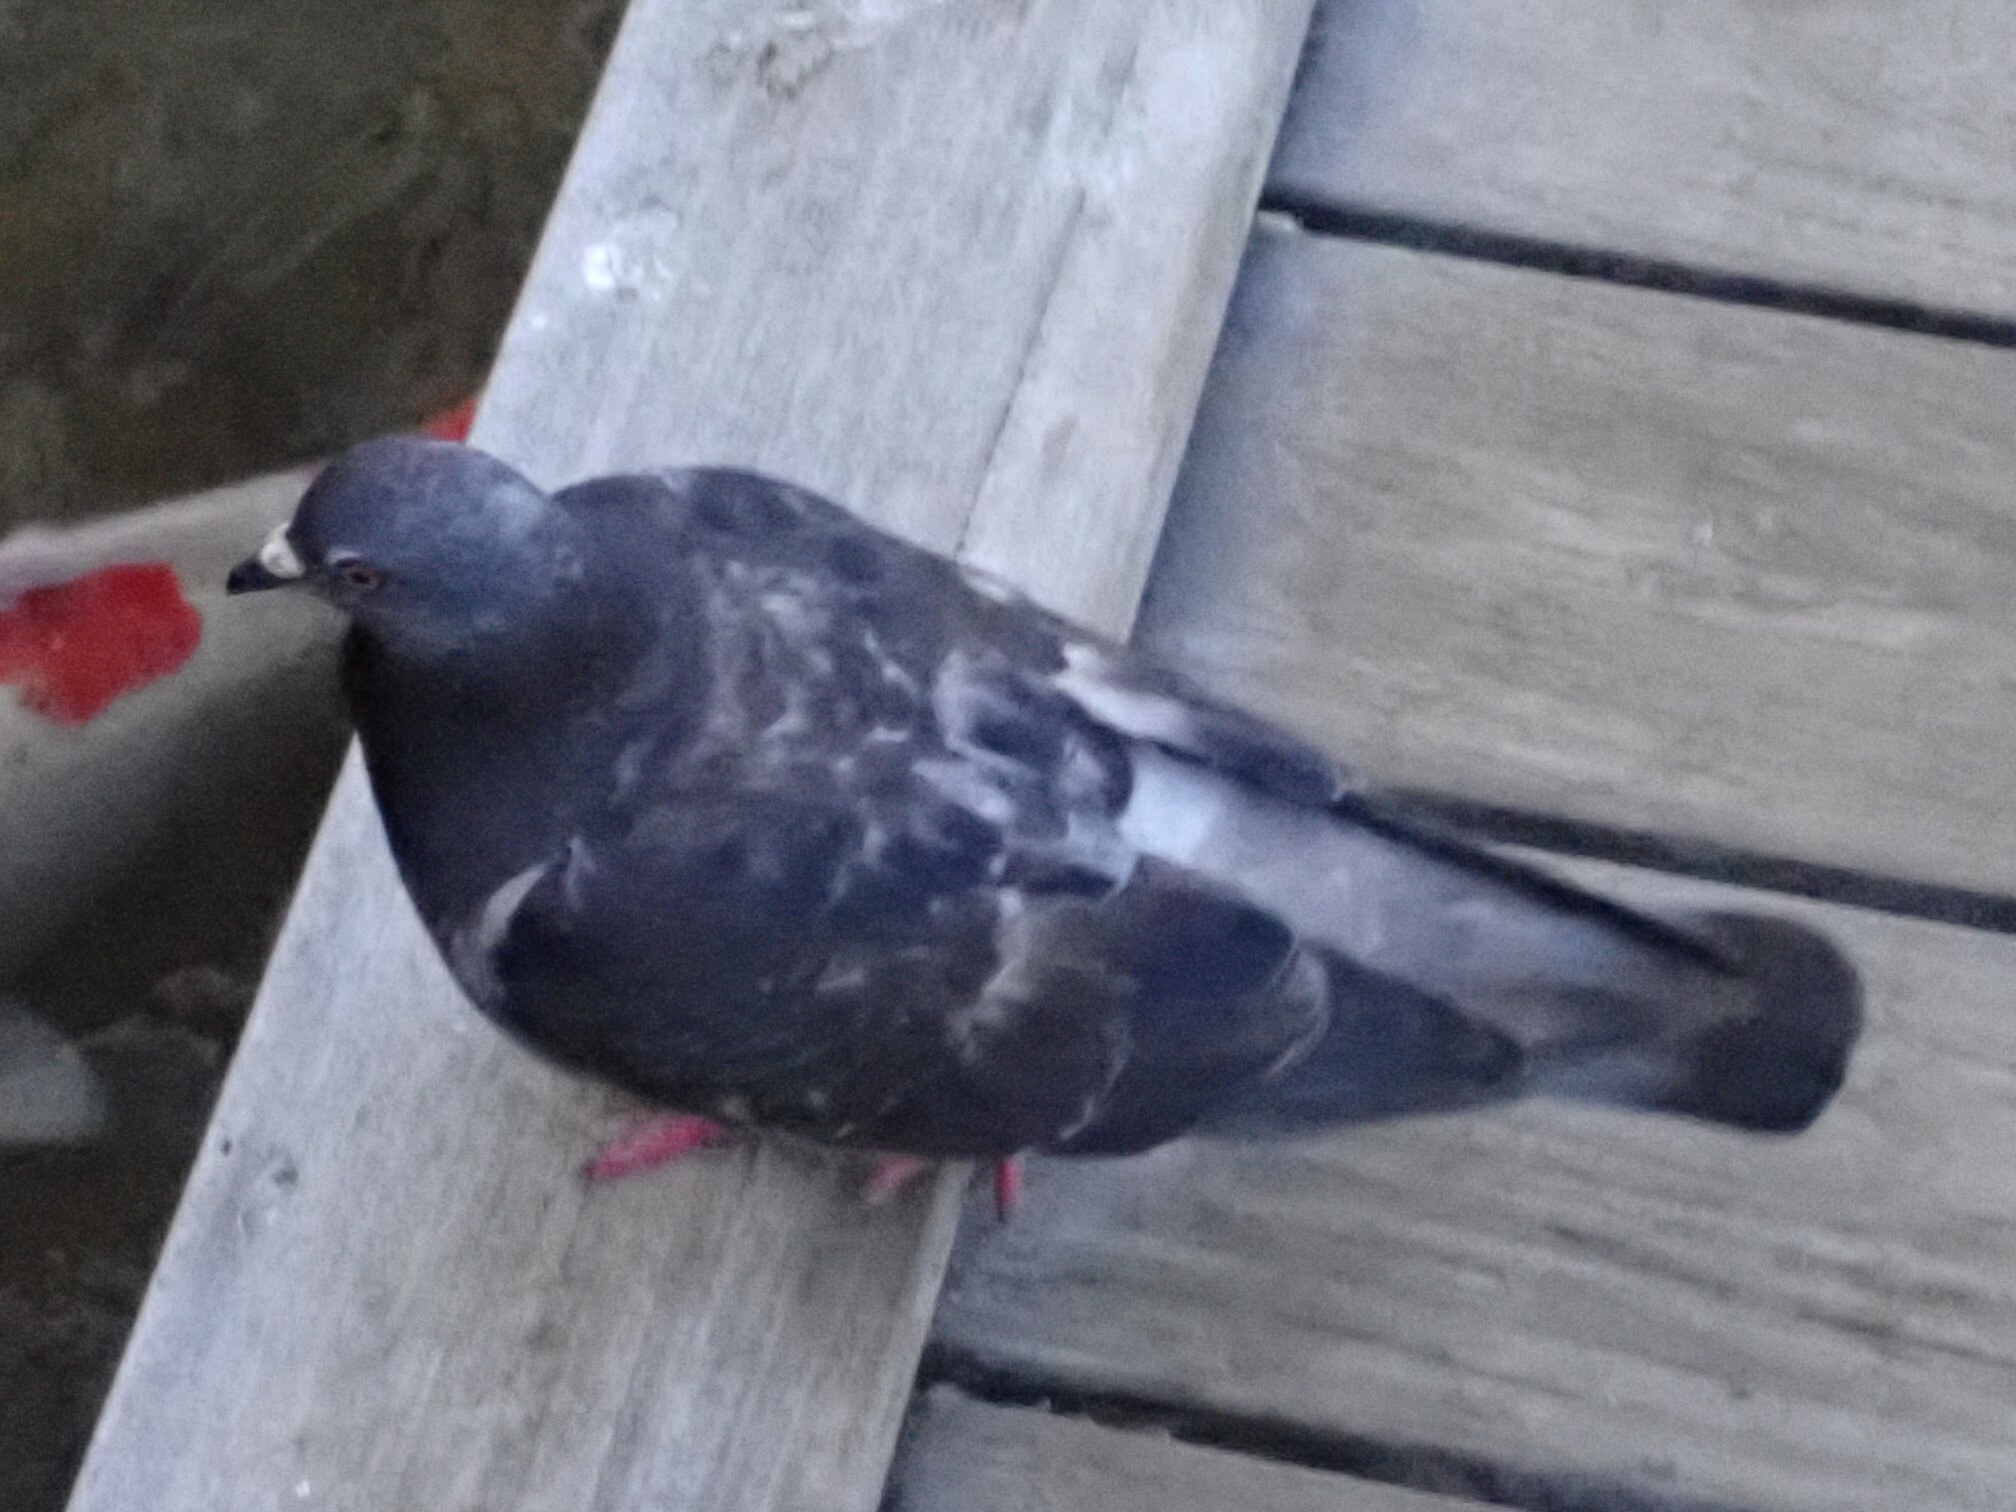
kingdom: Animalia
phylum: Chordata
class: Aves
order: Columbiformes
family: Columbidae
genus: Columba
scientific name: Columba livia
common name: Rock pigeon
